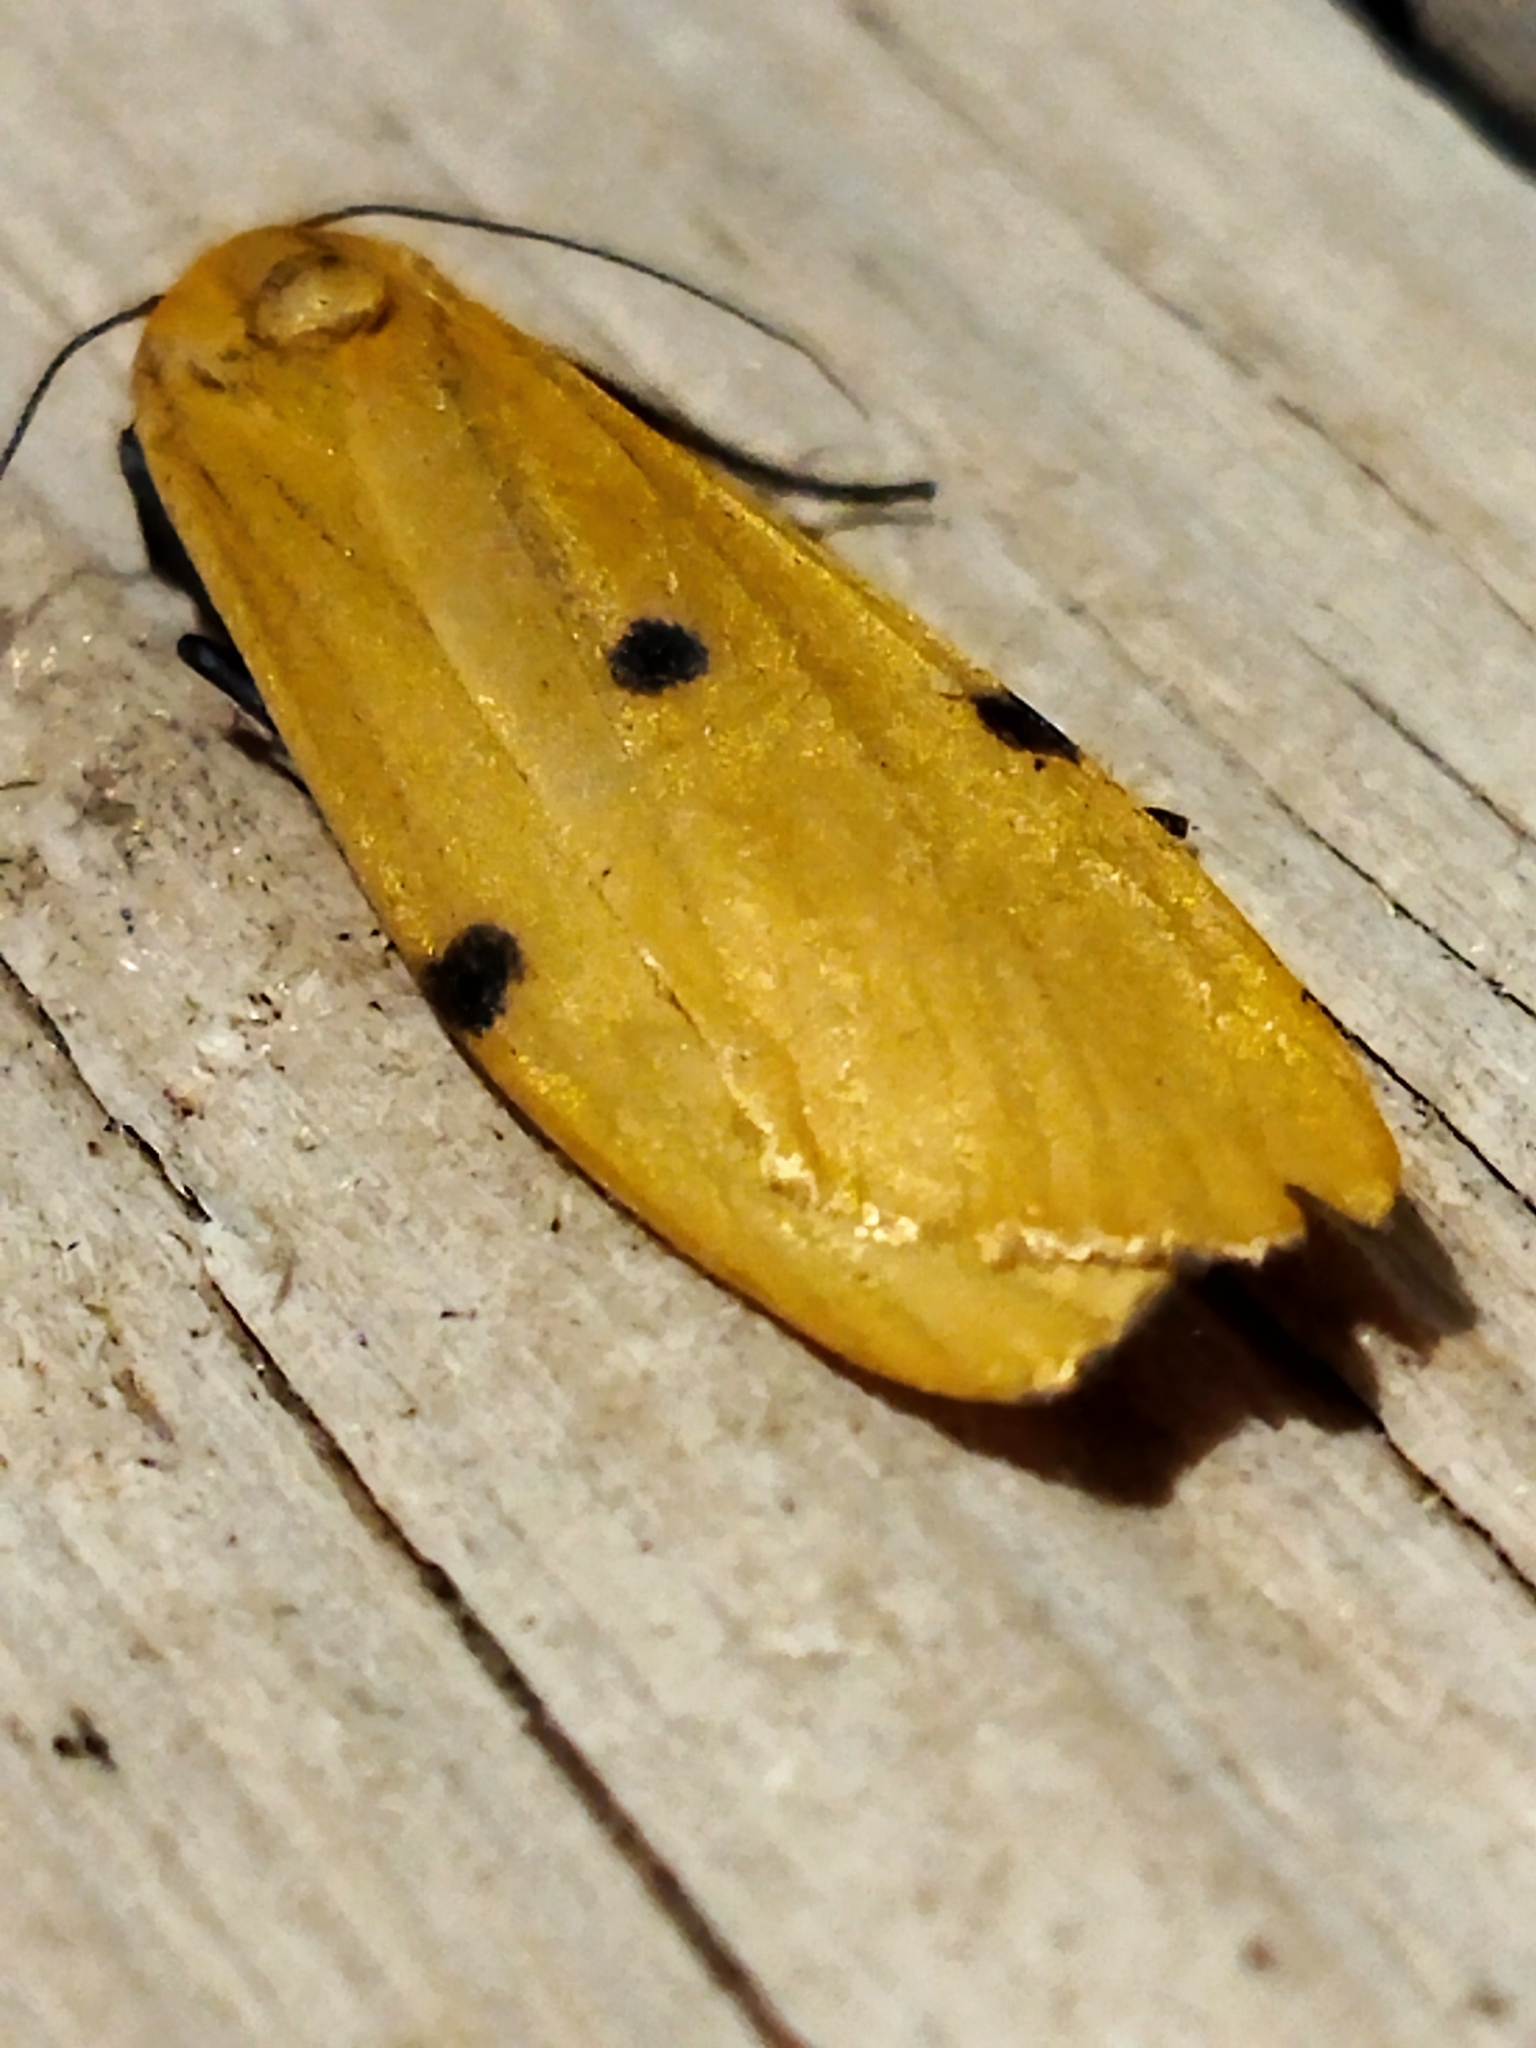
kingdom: Animalia
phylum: Arthropoda
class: Insecta
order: Lepidoptera
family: Erebidae
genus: Lithosia
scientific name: Lithosia quadra
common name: Four-spotted footman
